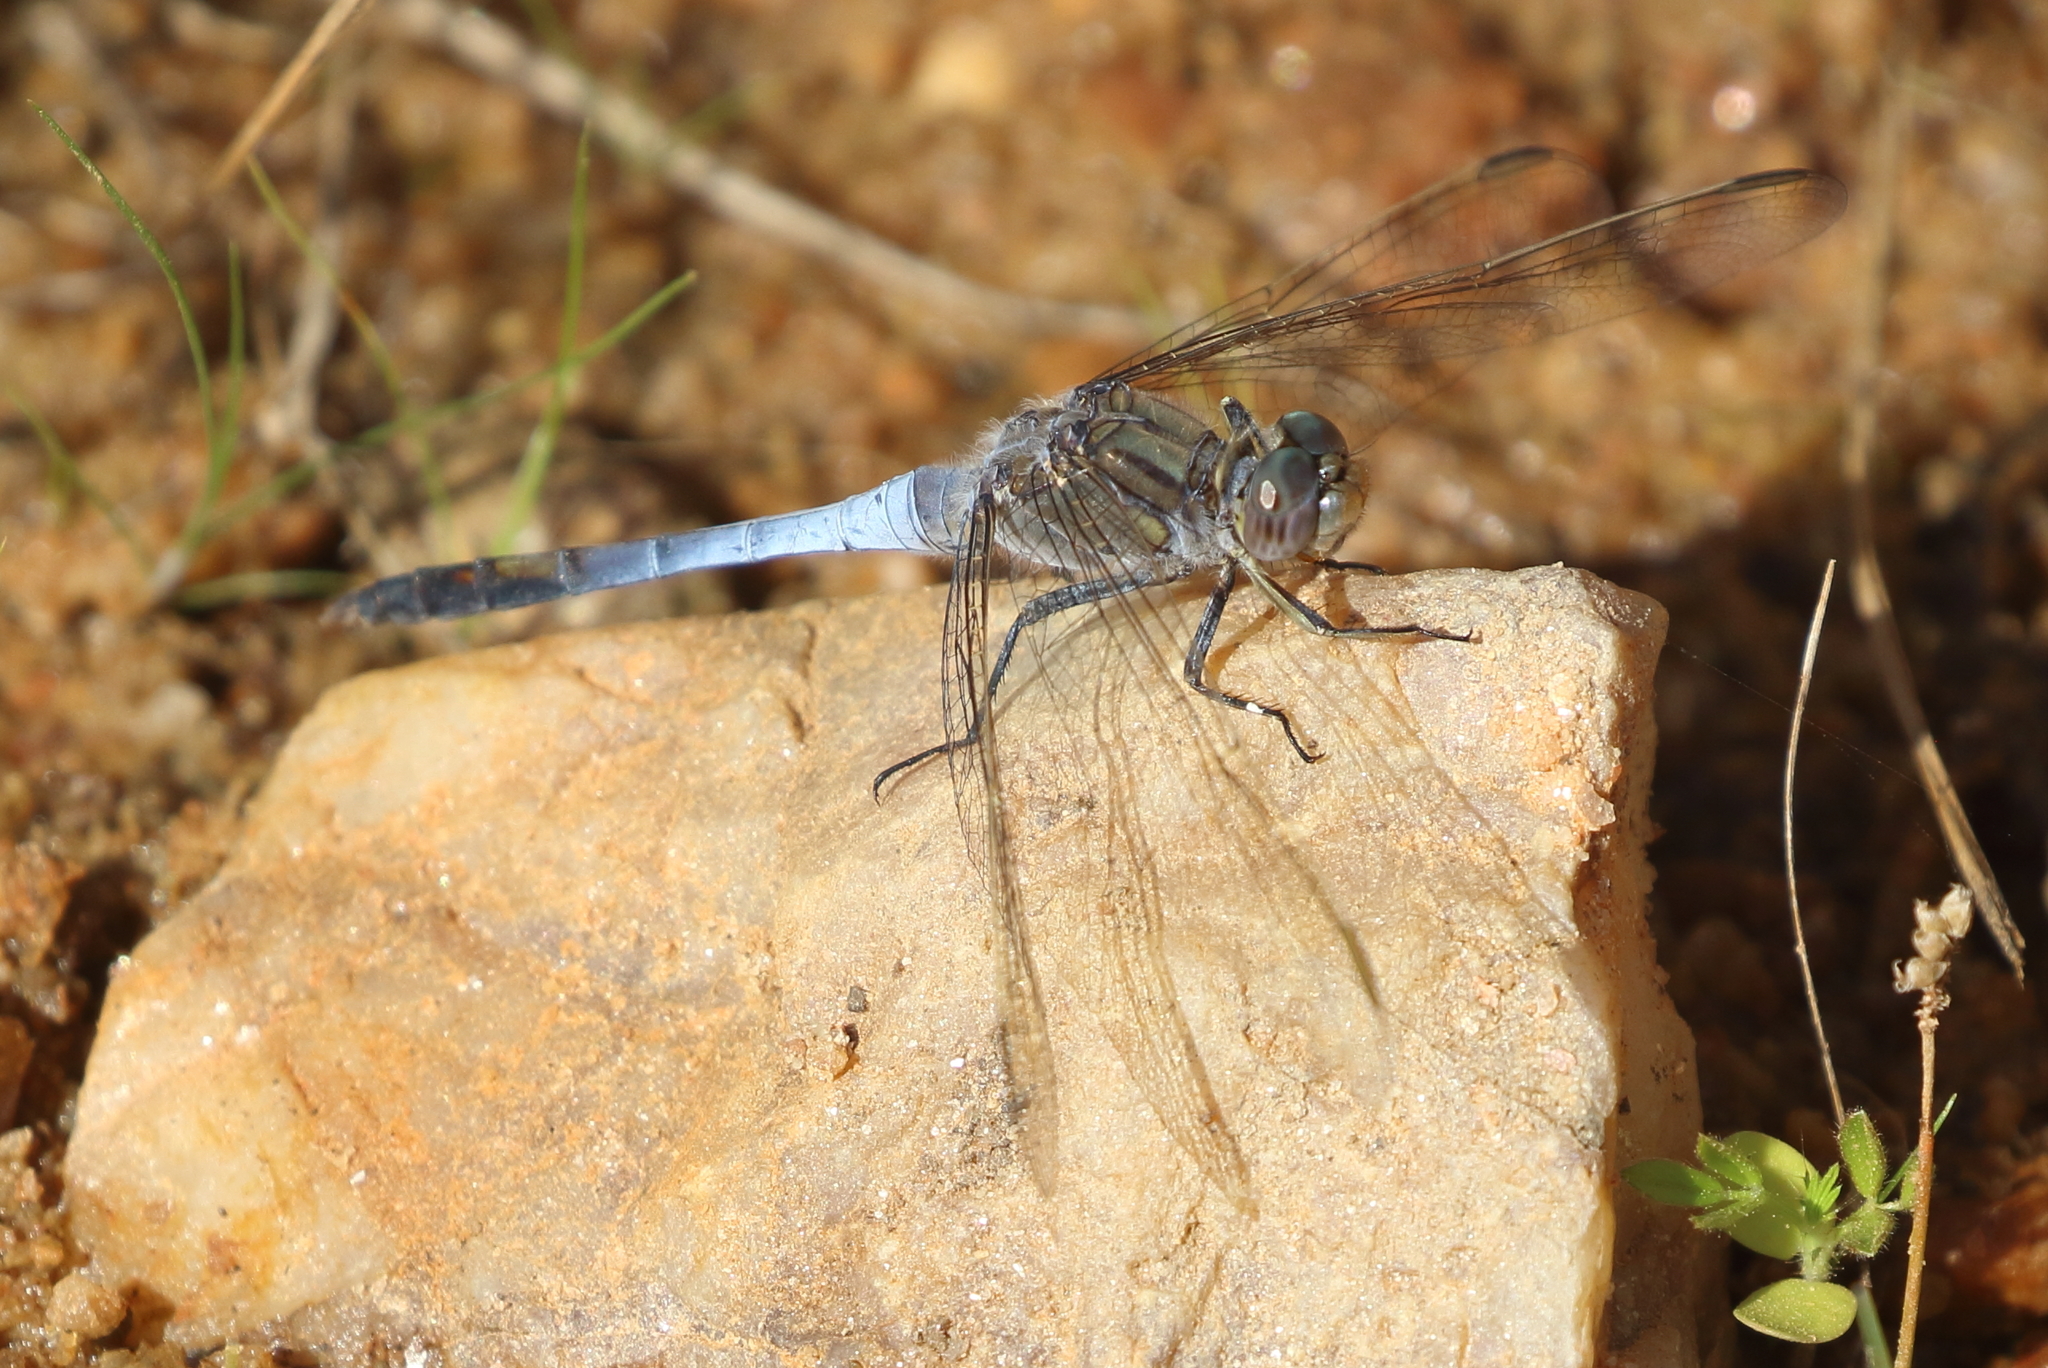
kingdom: Animalia
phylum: Arthropoda
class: Insecta
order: Odonata
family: Libellulidae
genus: Orthetrum
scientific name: Orthetrum caledonicum
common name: Blue skimmer
